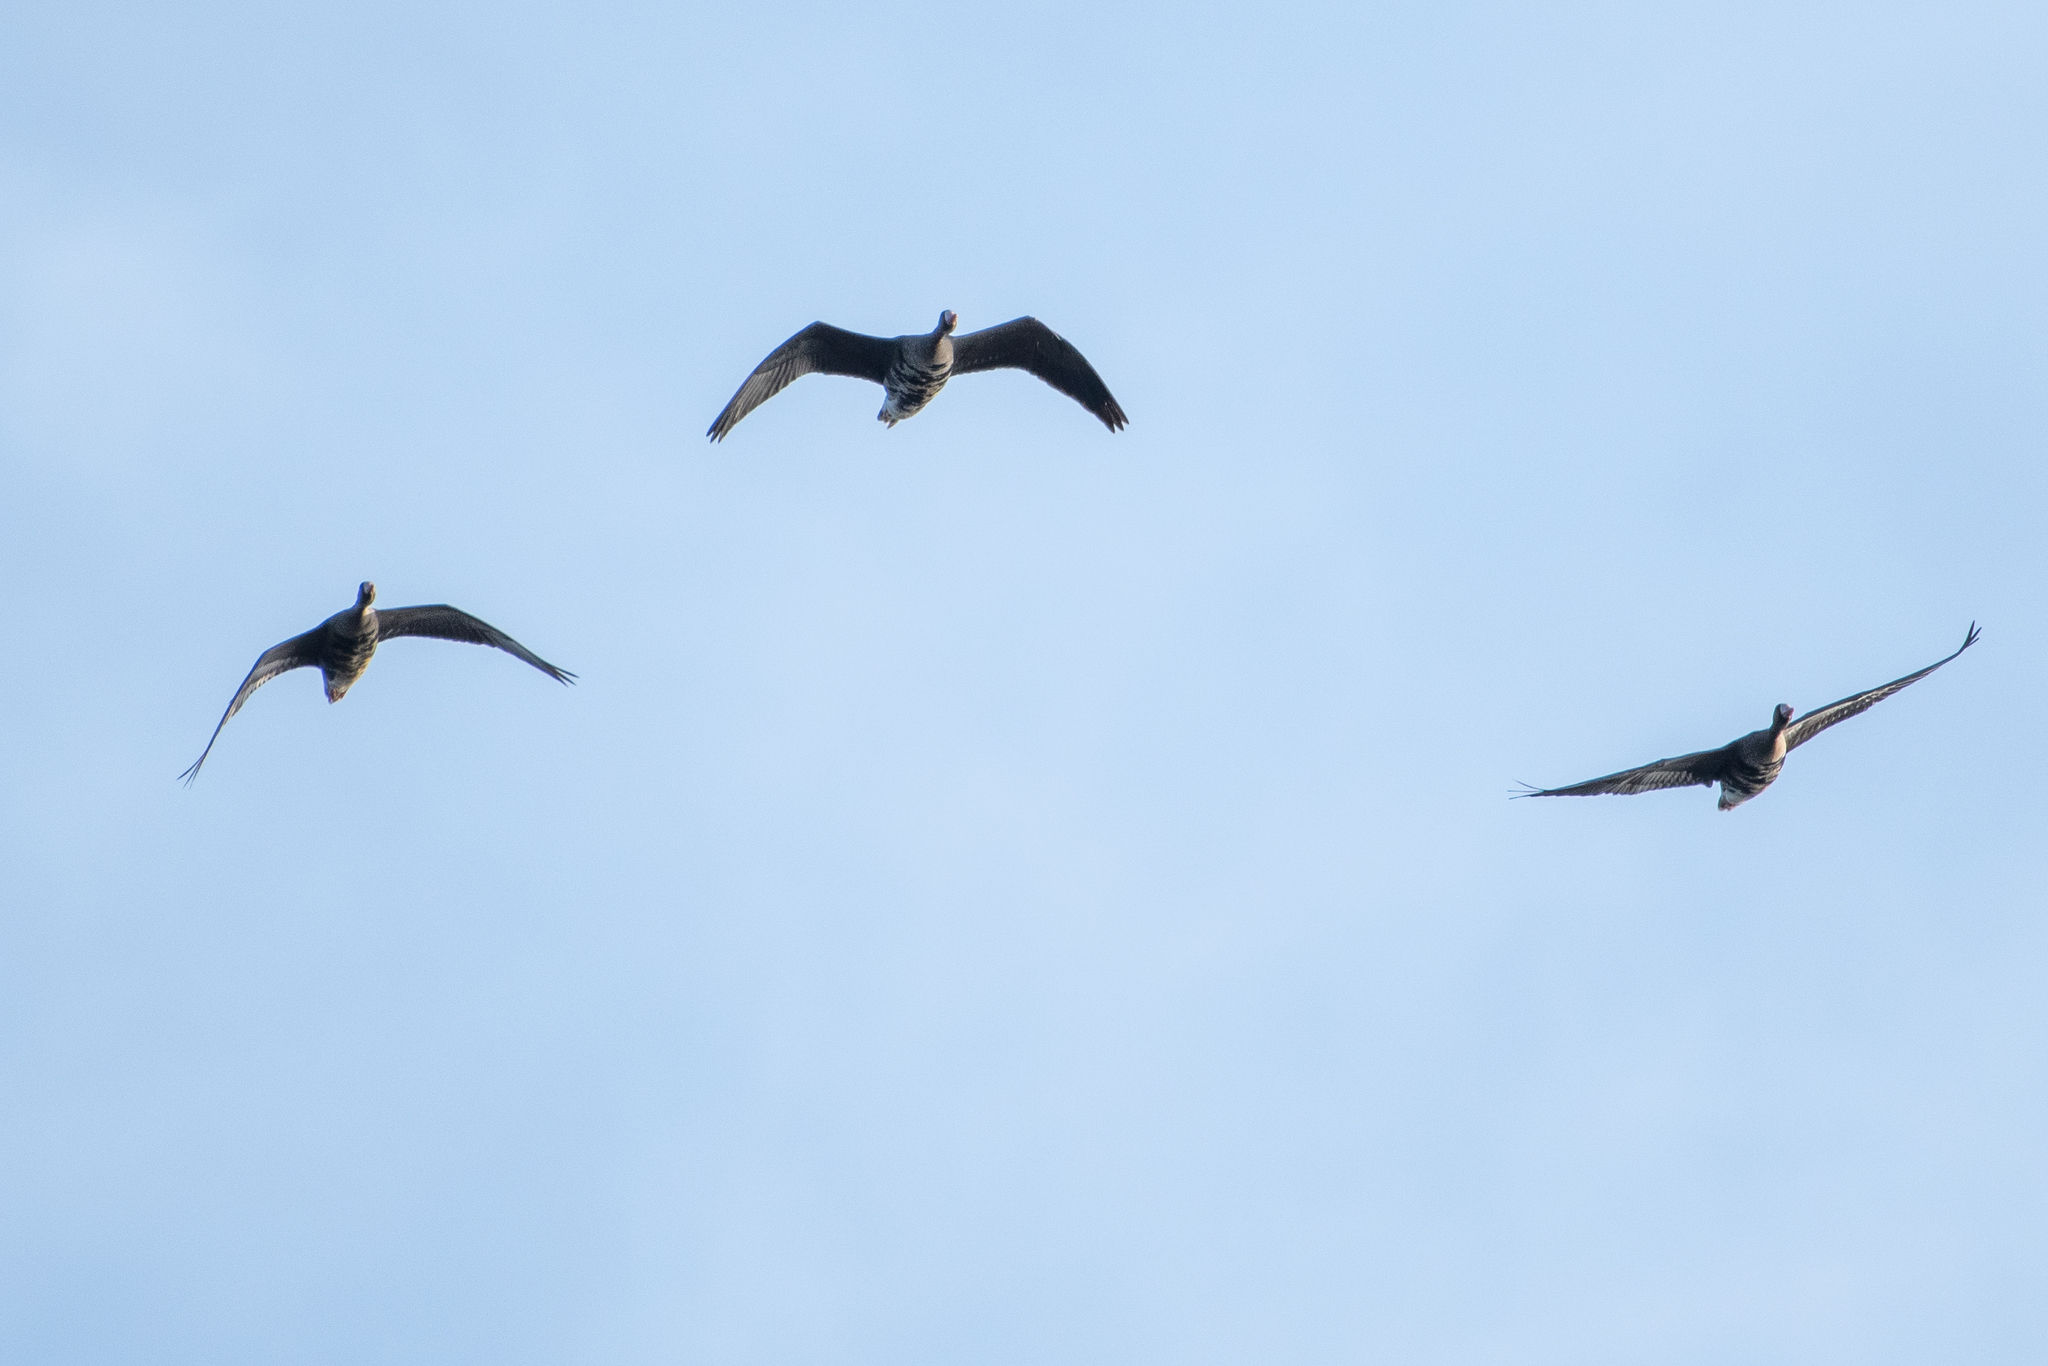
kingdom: Animalia
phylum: Chordata
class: Aves
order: Anseriformes
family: Anatidae
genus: Anser
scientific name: Anser albifrons
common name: Greater white-fronted goose
